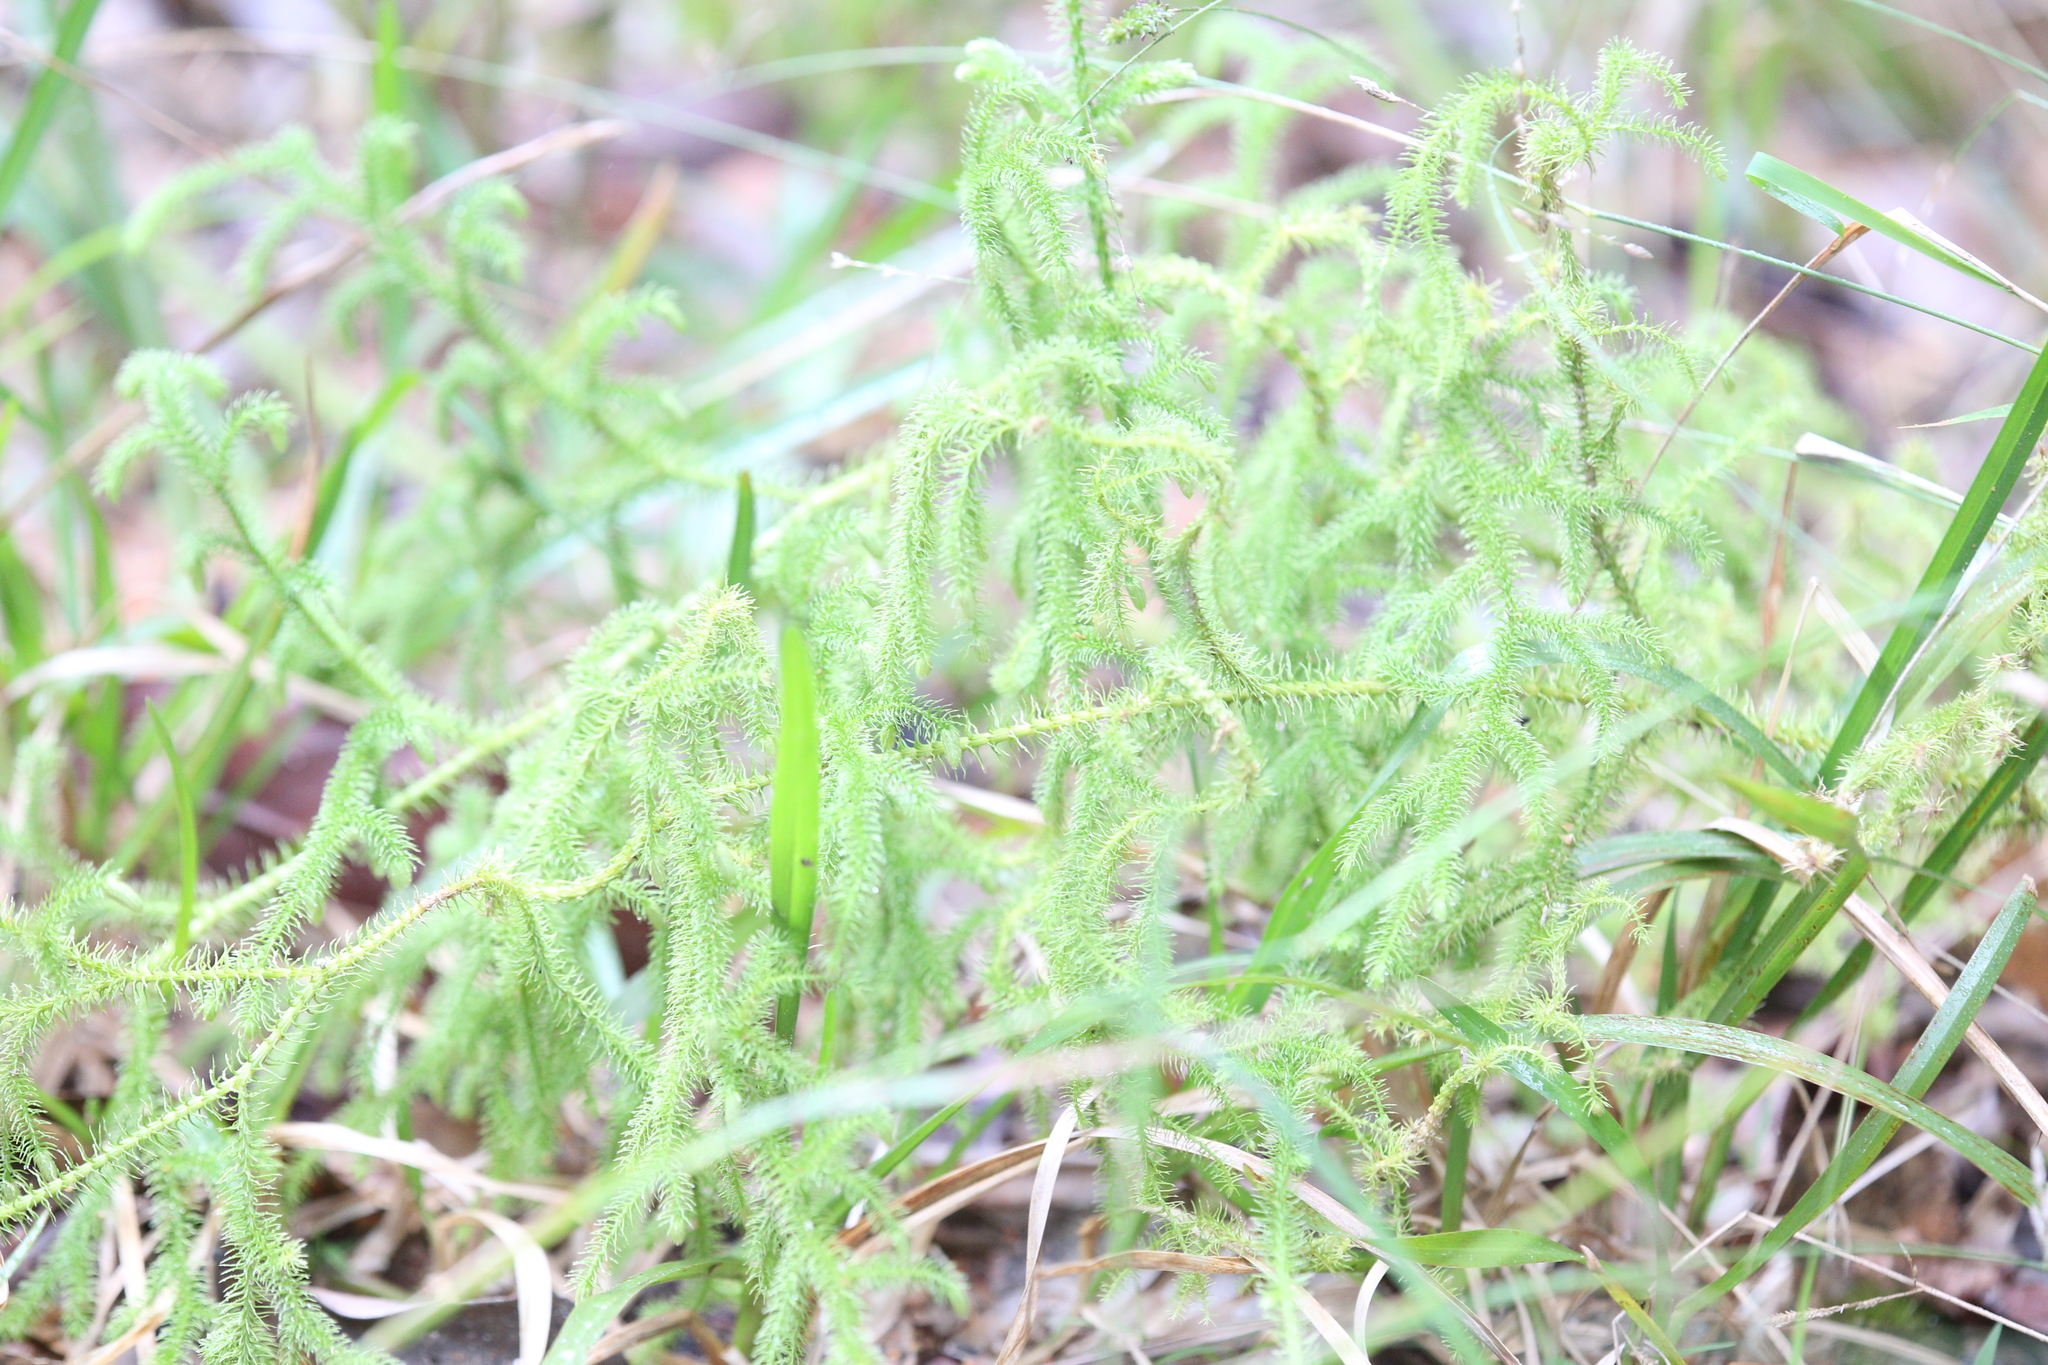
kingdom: Plantae
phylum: Tracheophyta
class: Lycopodiopsida
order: Lycopodiales
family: Lycopodiaceae
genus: Palhinhaea
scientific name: Palhinhaea cernua
